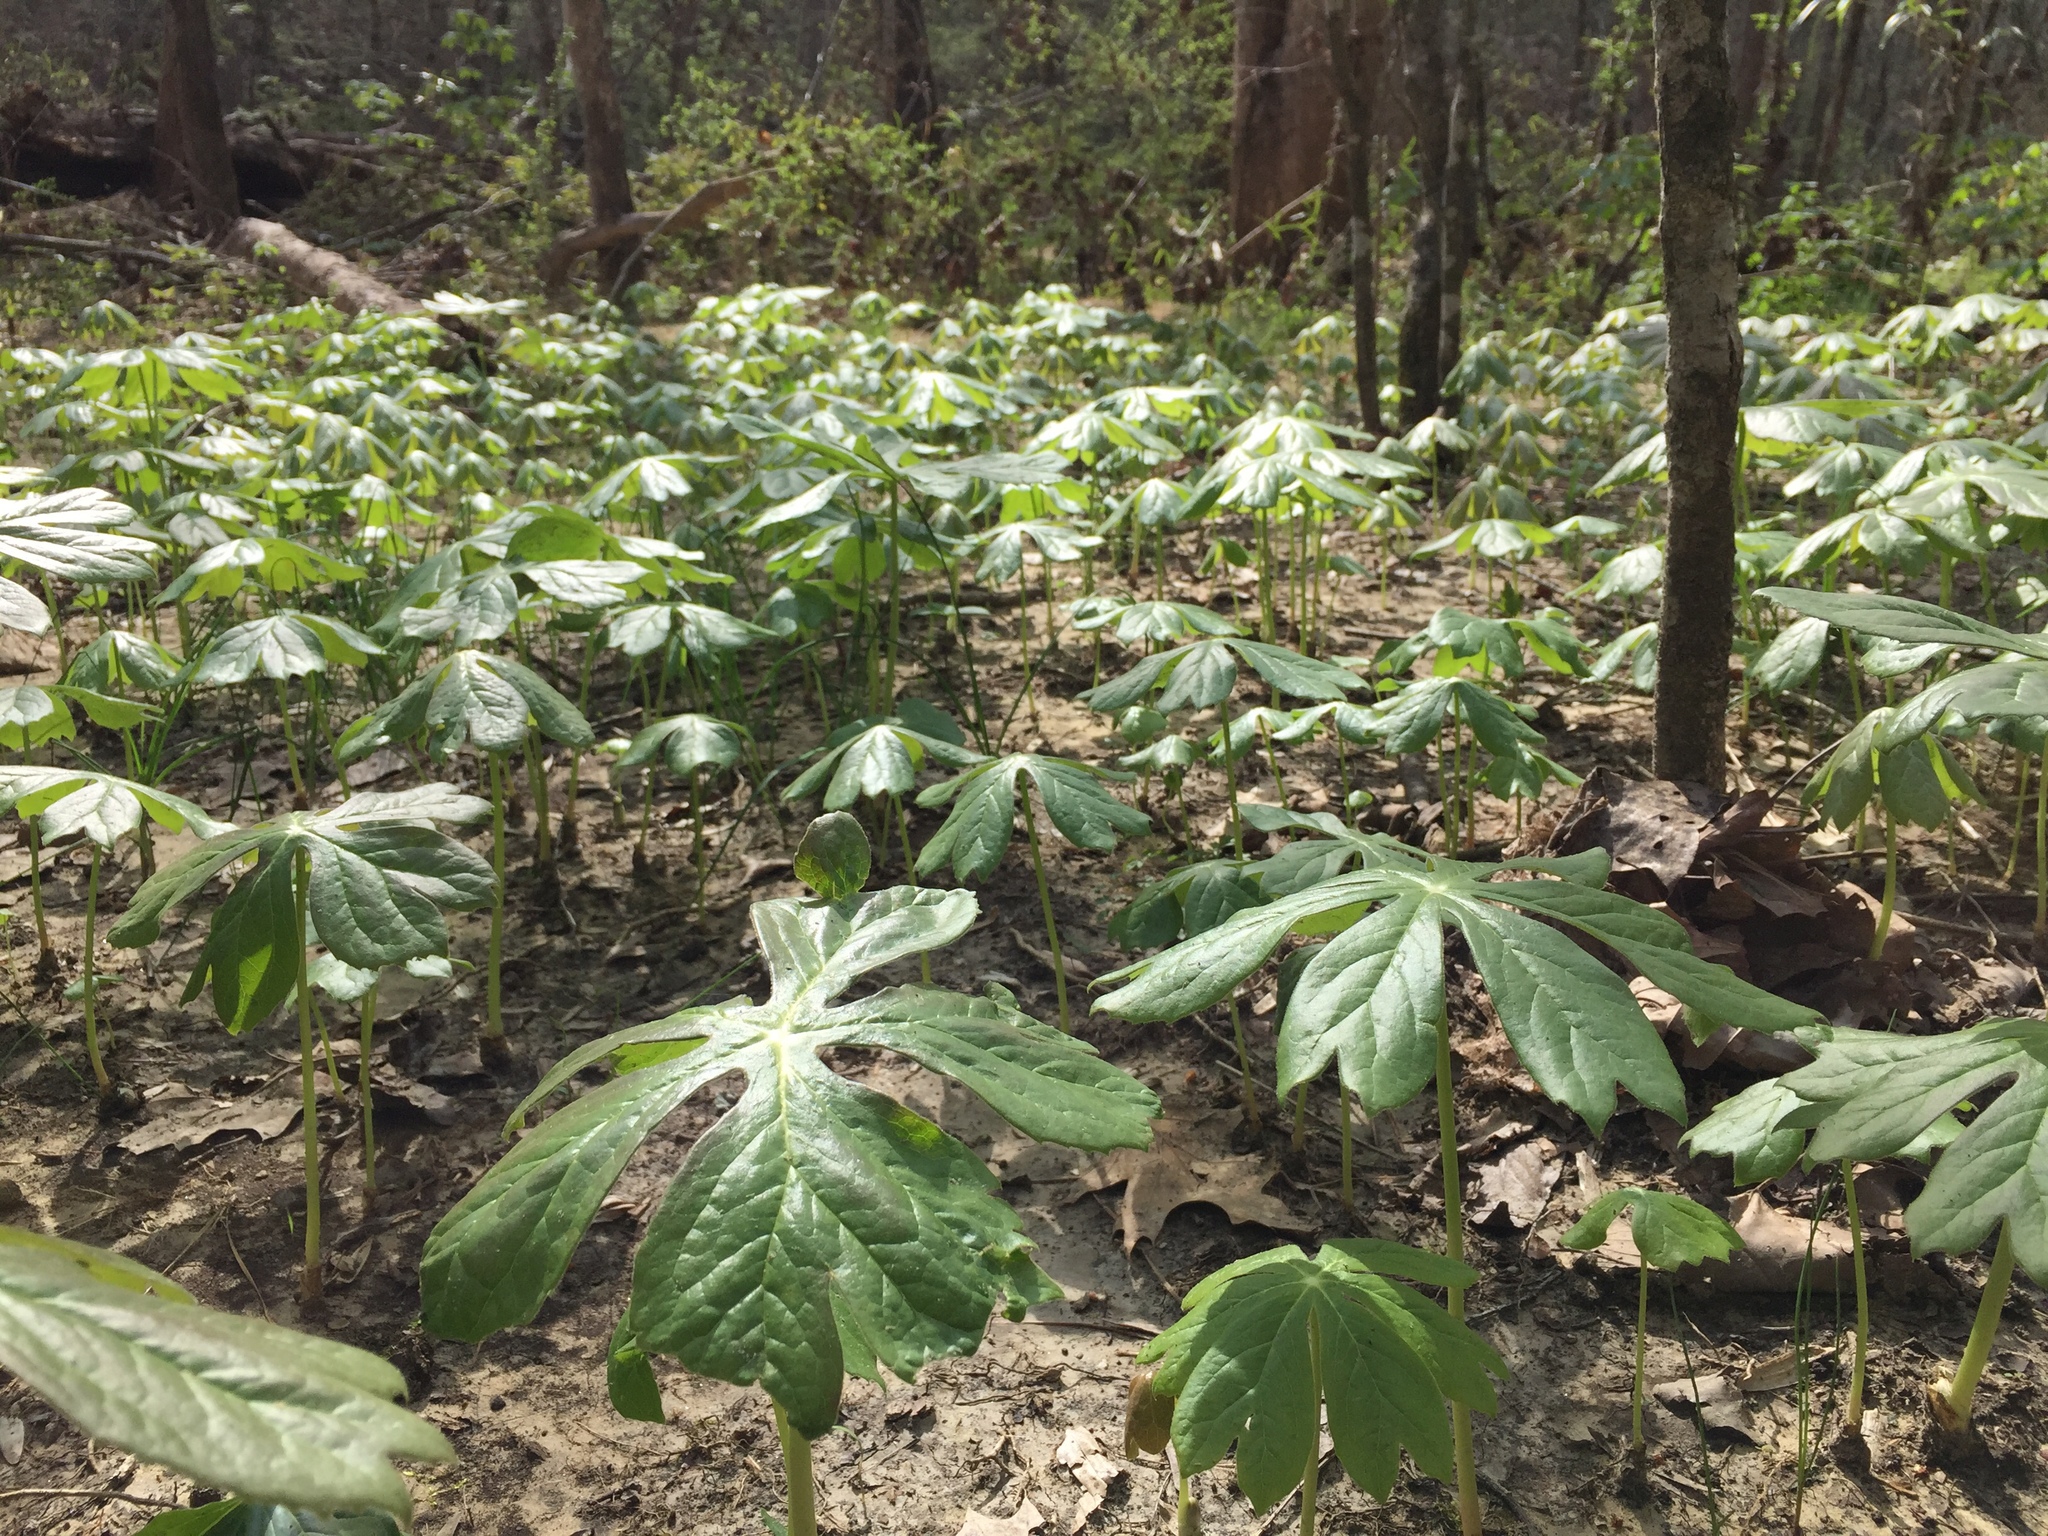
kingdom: Plantae
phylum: Tracheophyta
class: Magnoliopsida
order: Ranunculales
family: Berberidaceae
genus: Podophyllum
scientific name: Podophyllum peltatum
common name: Wild mandrake
